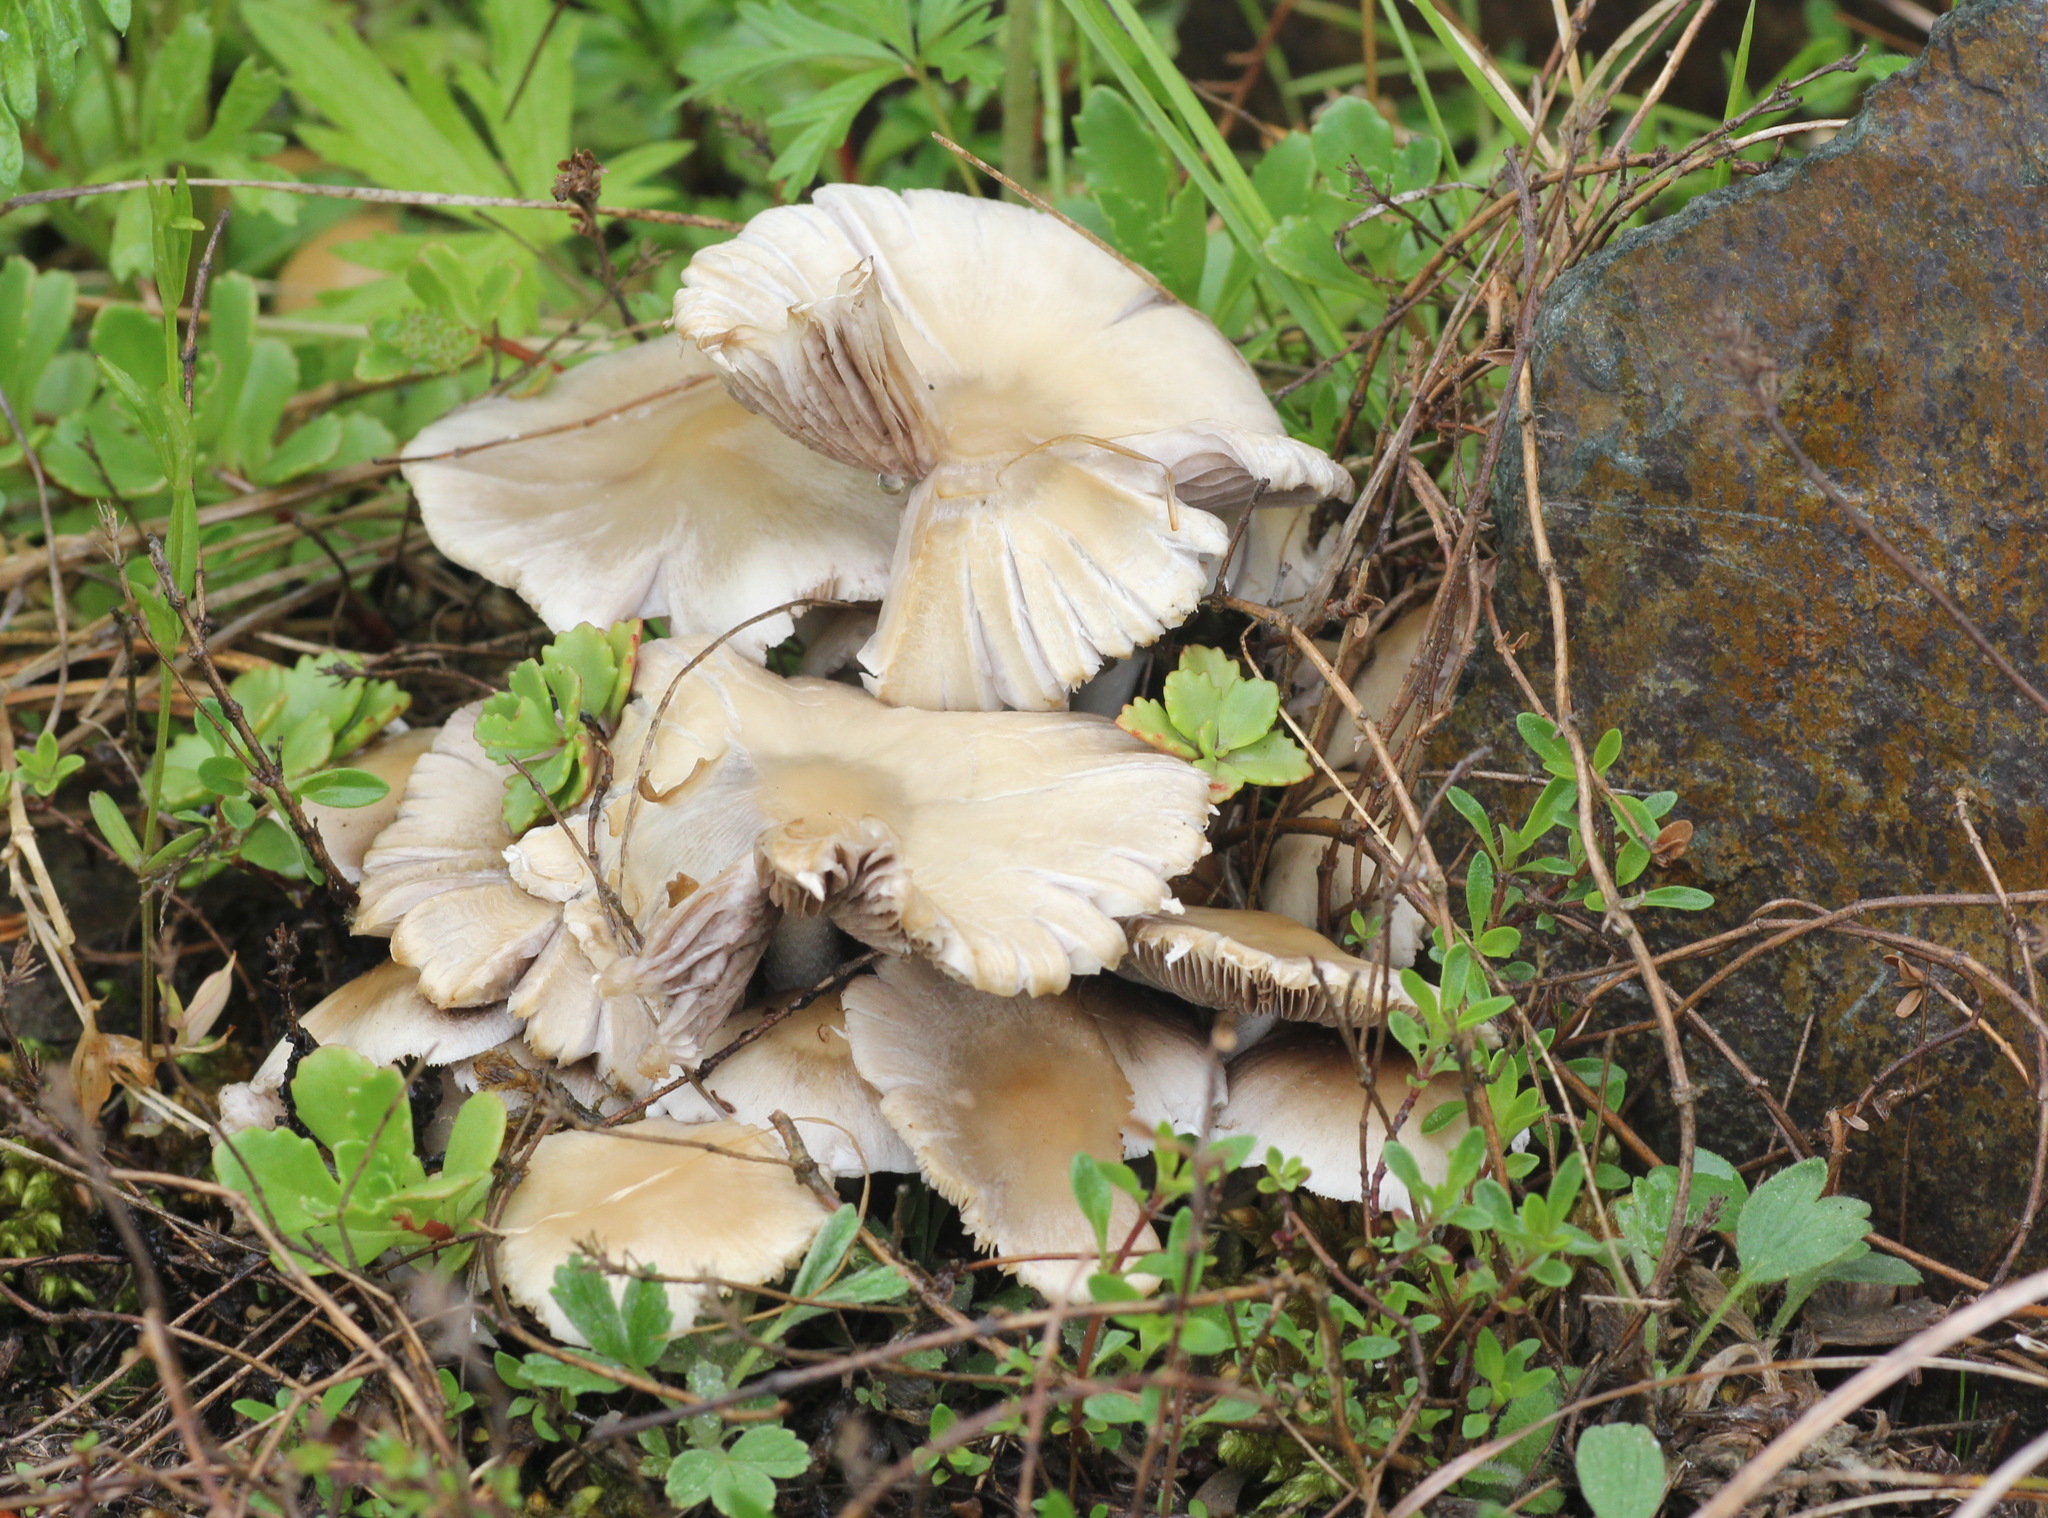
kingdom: Fungi
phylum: Basidiomycota
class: Agaricomycetes
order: Agaricales
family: Psathyrellaceae
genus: Candolleomyces
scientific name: Candolleomyces candolleanus
